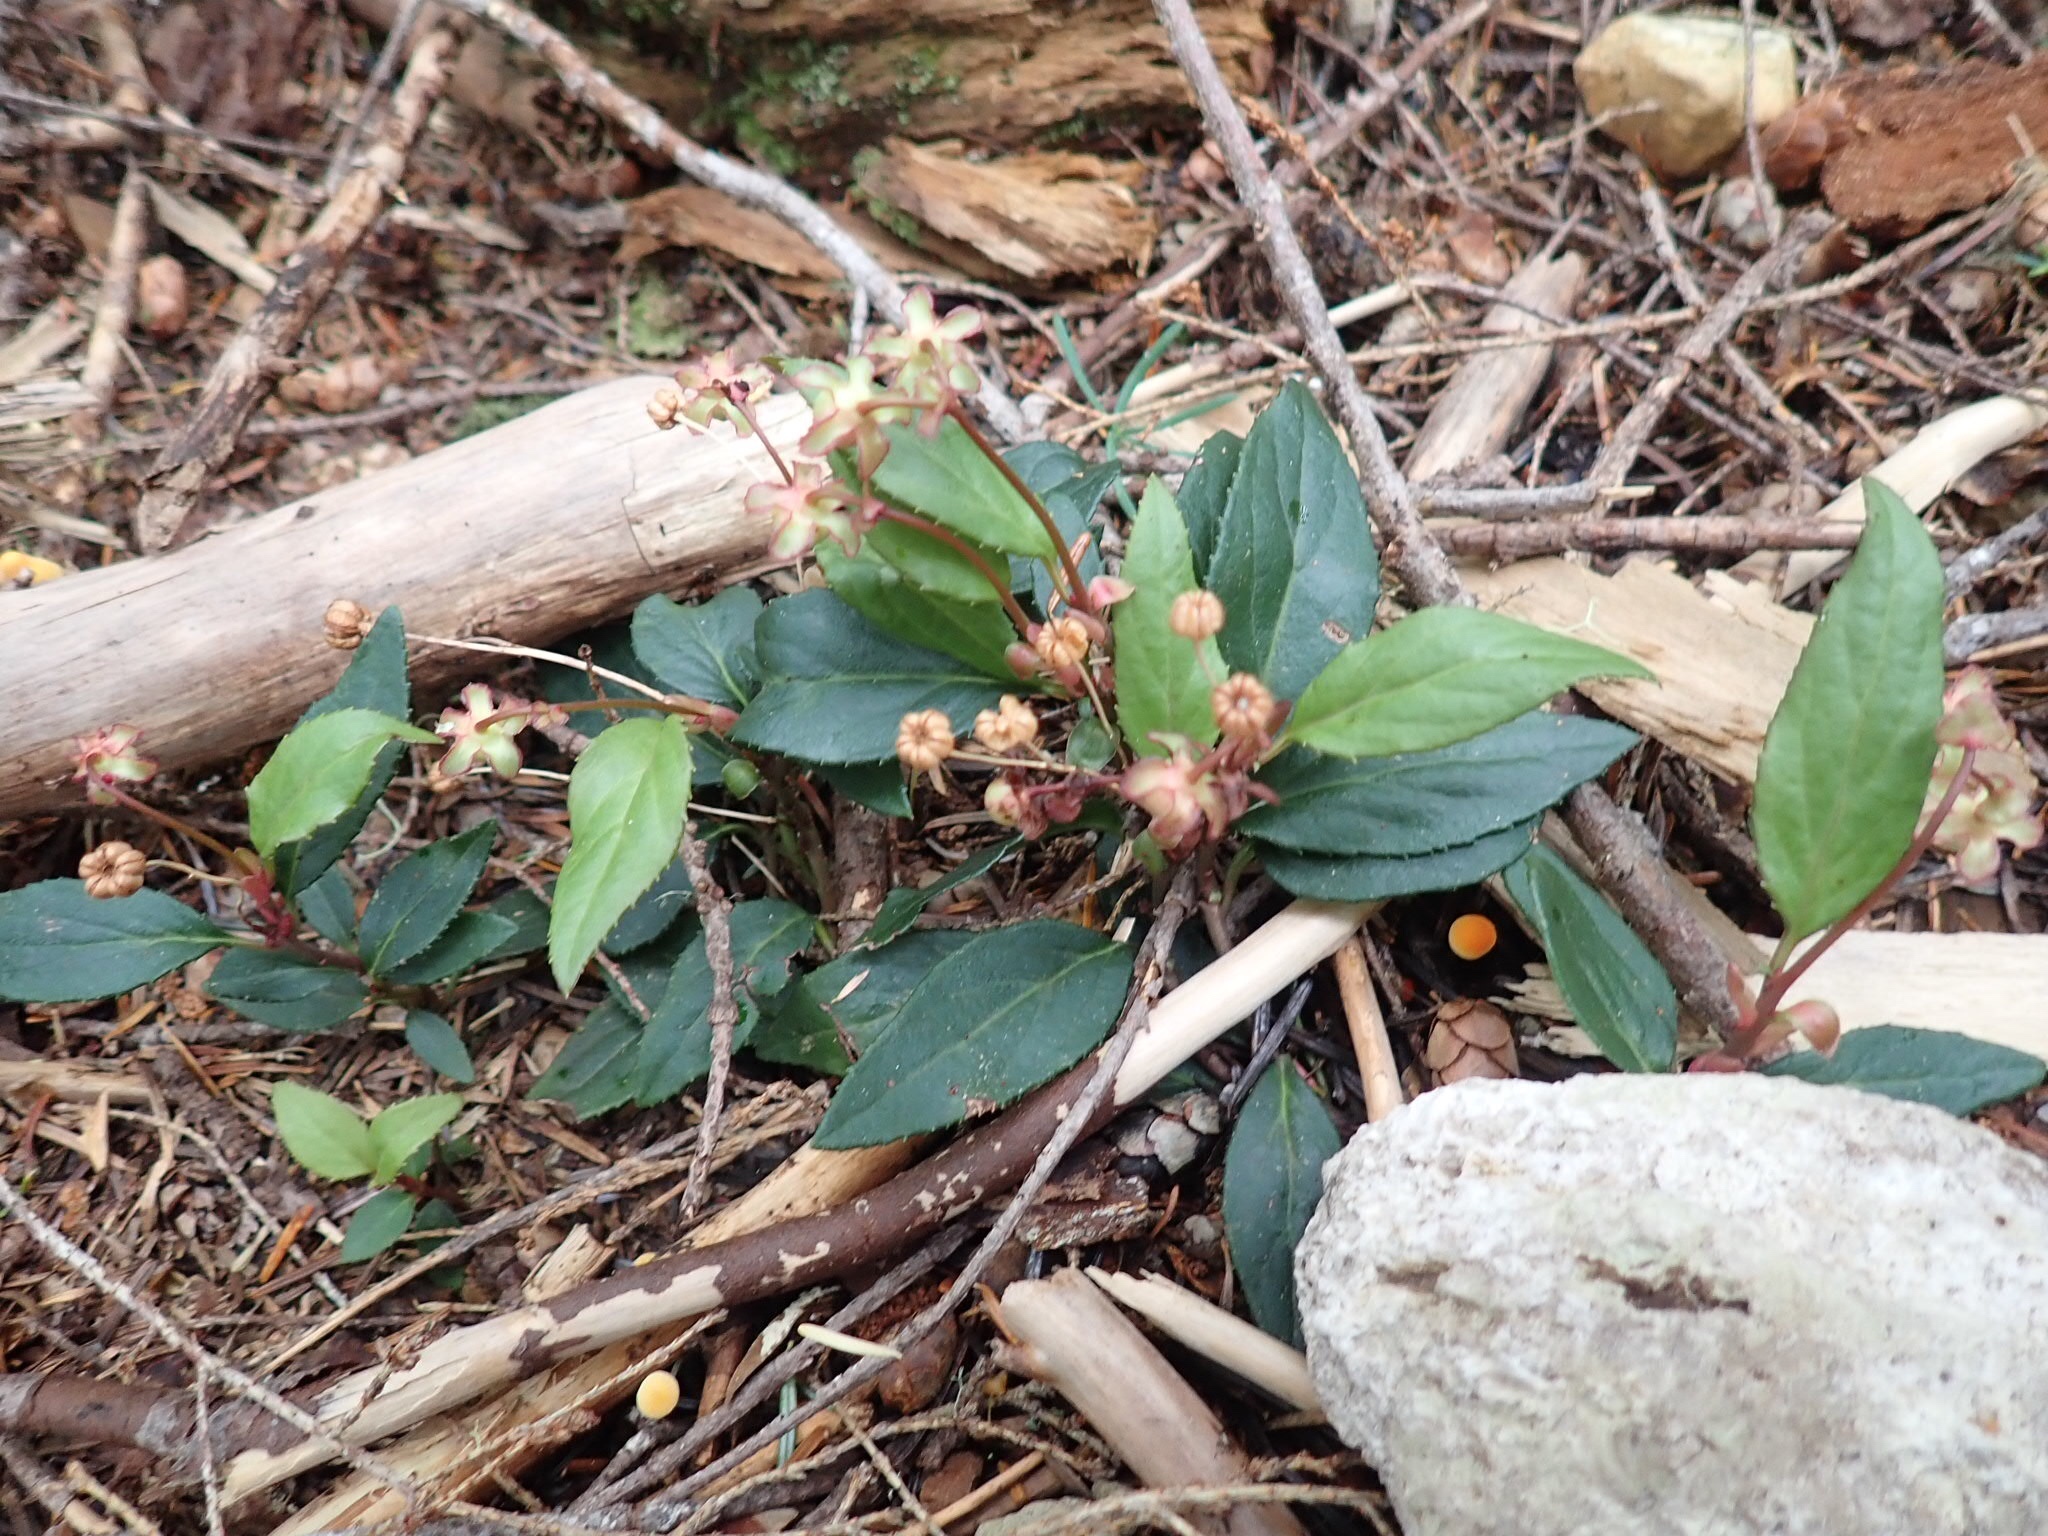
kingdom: Plantae
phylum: Tracheophyta
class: Magnoliopsida
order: Ericales
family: Ericaceae
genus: Chimaphila
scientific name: Chimaphila menziesii
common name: Menzies' pipsissewa
